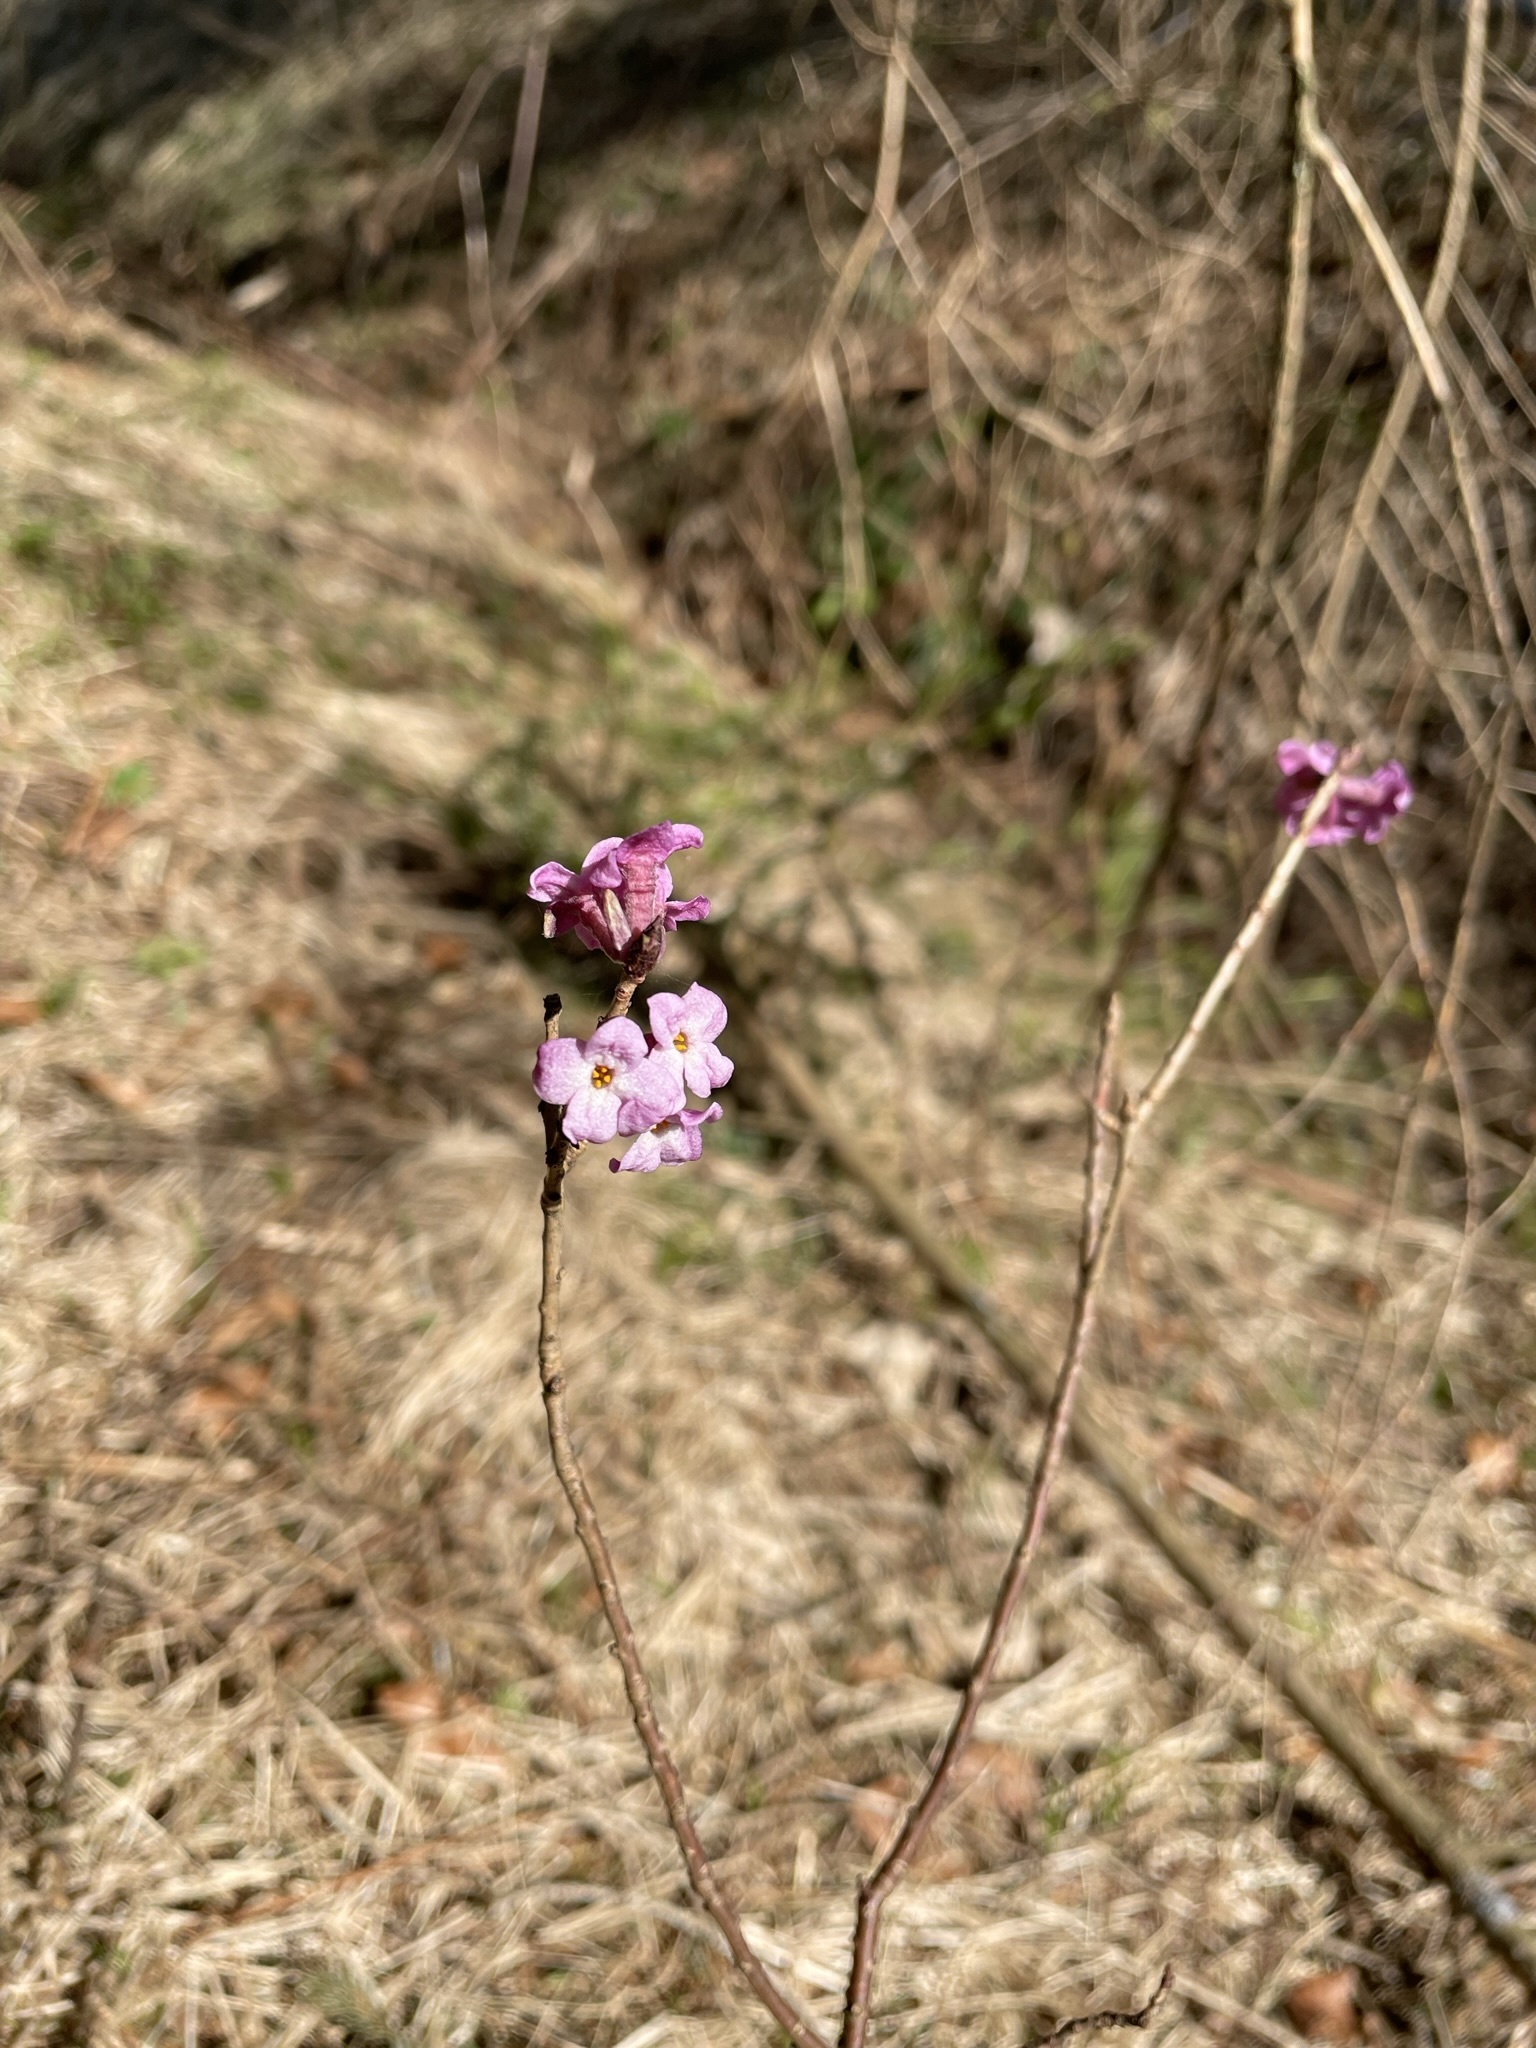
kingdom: Plantae
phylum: Tracheophyta
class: Magnoliopsida
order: Malvales
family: Thymelaeaceae
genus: Daphne
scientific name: Daphne mezereum
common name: Mezereon
